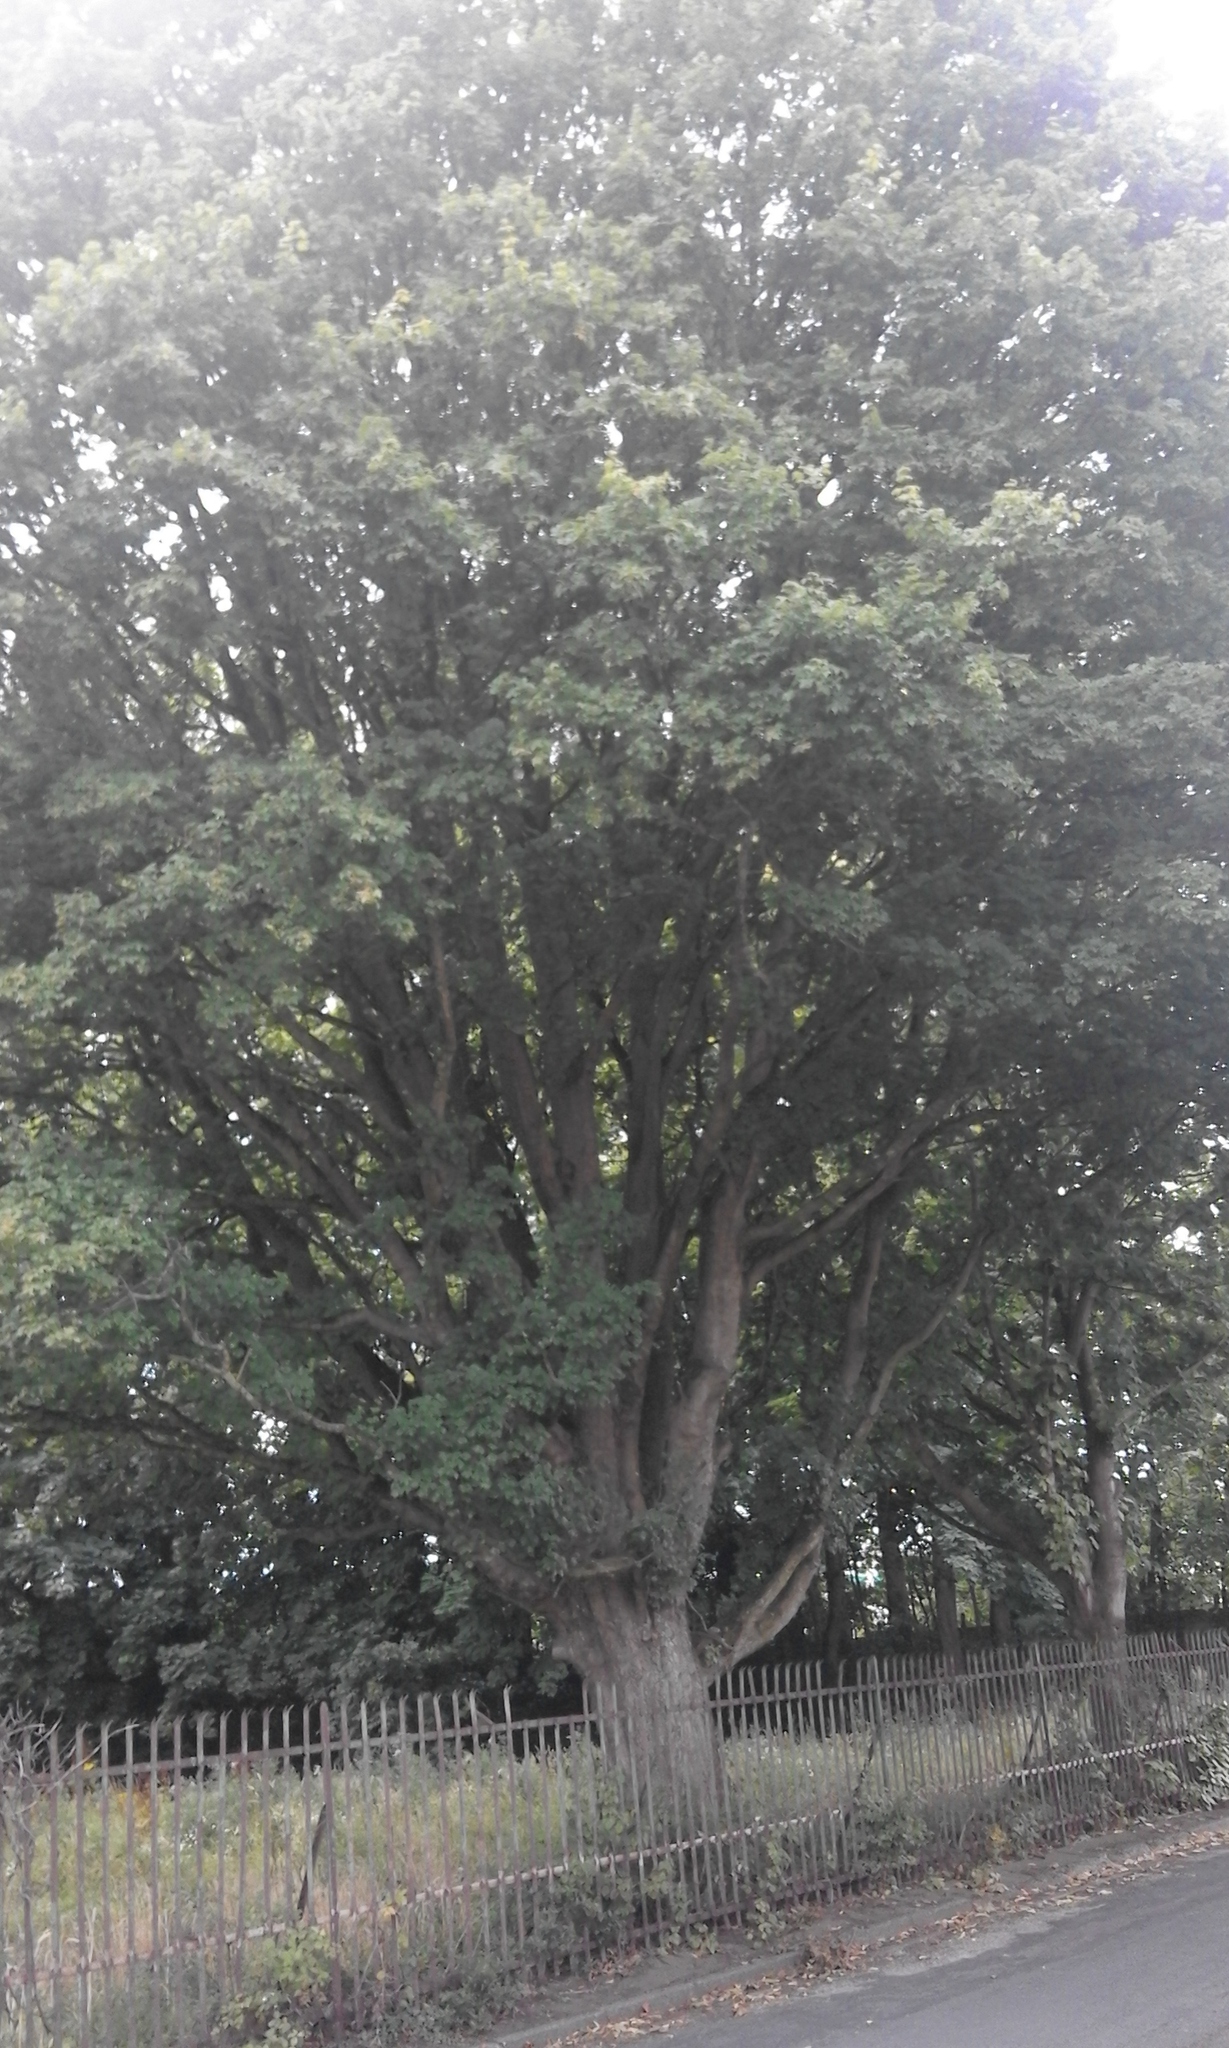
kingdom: Plantae
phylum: Tracheophyta
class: Magnoliopsida
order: Sapindales
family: Sapindaceae
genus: Acer
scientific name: Acer campestre
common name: Field maple
